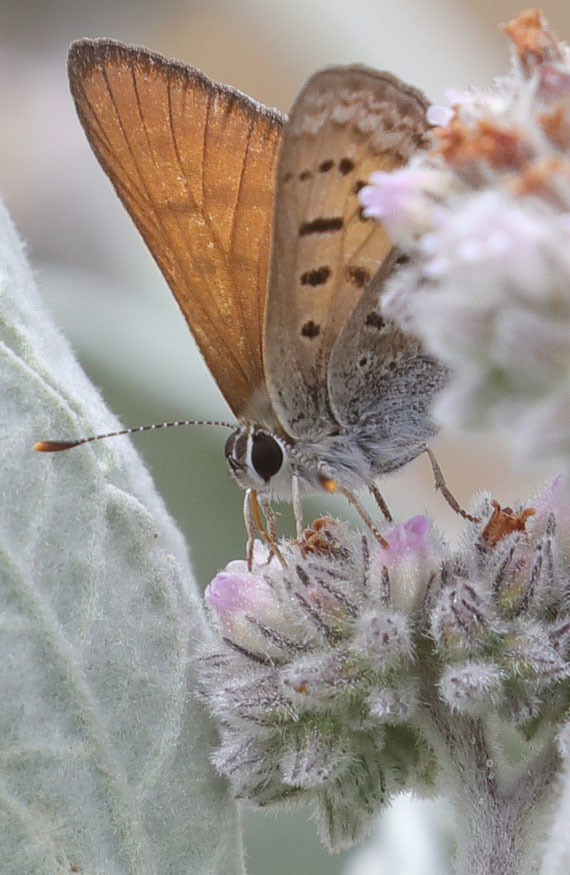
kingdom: Animalia
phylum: Arthropoda
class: Insecta
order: Lepidoptera
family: Lycaenidae
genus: Tharsalea
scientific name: Tharsalea arota
